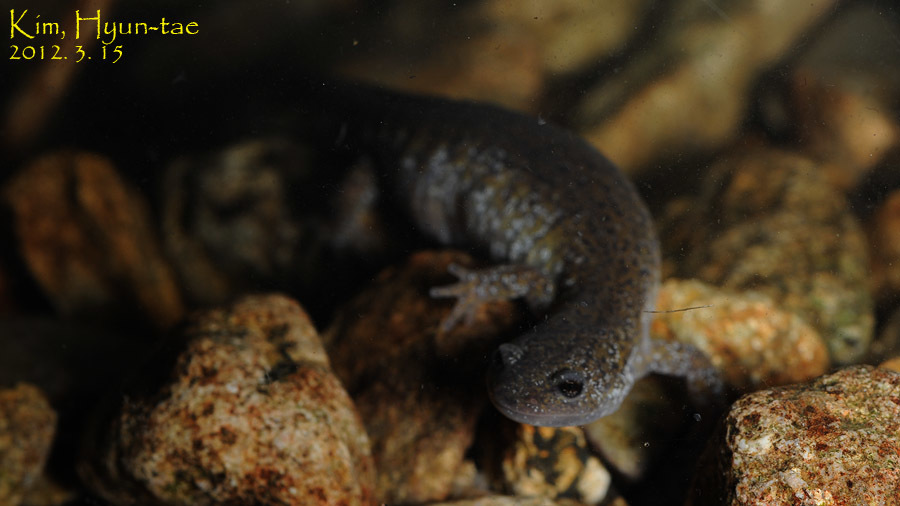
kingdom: Animalia
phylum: Chordata
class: Amphibia
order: Caudata
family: Hynobiidae
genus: Hynobius
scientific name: Hynobius leechii
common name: Gensan salamander
